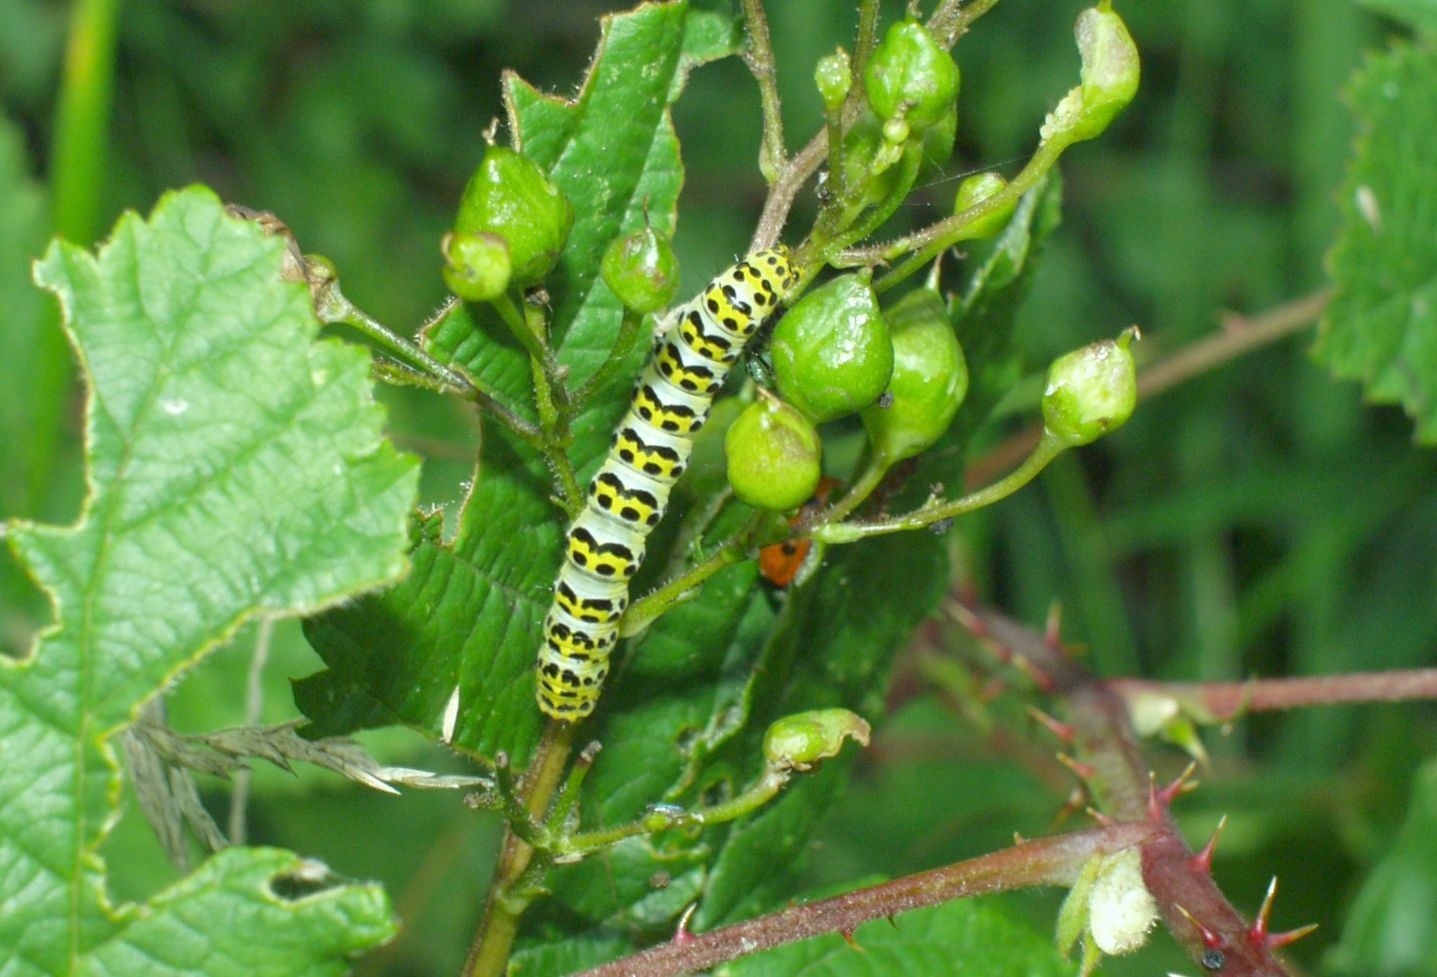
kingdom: Animalia
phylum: Arthropoda
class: Insecta
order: Lepidoptera
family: Noctuidae
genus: Shargacucullia
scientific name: Shargacucullia scrophulariae
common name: Water betony
